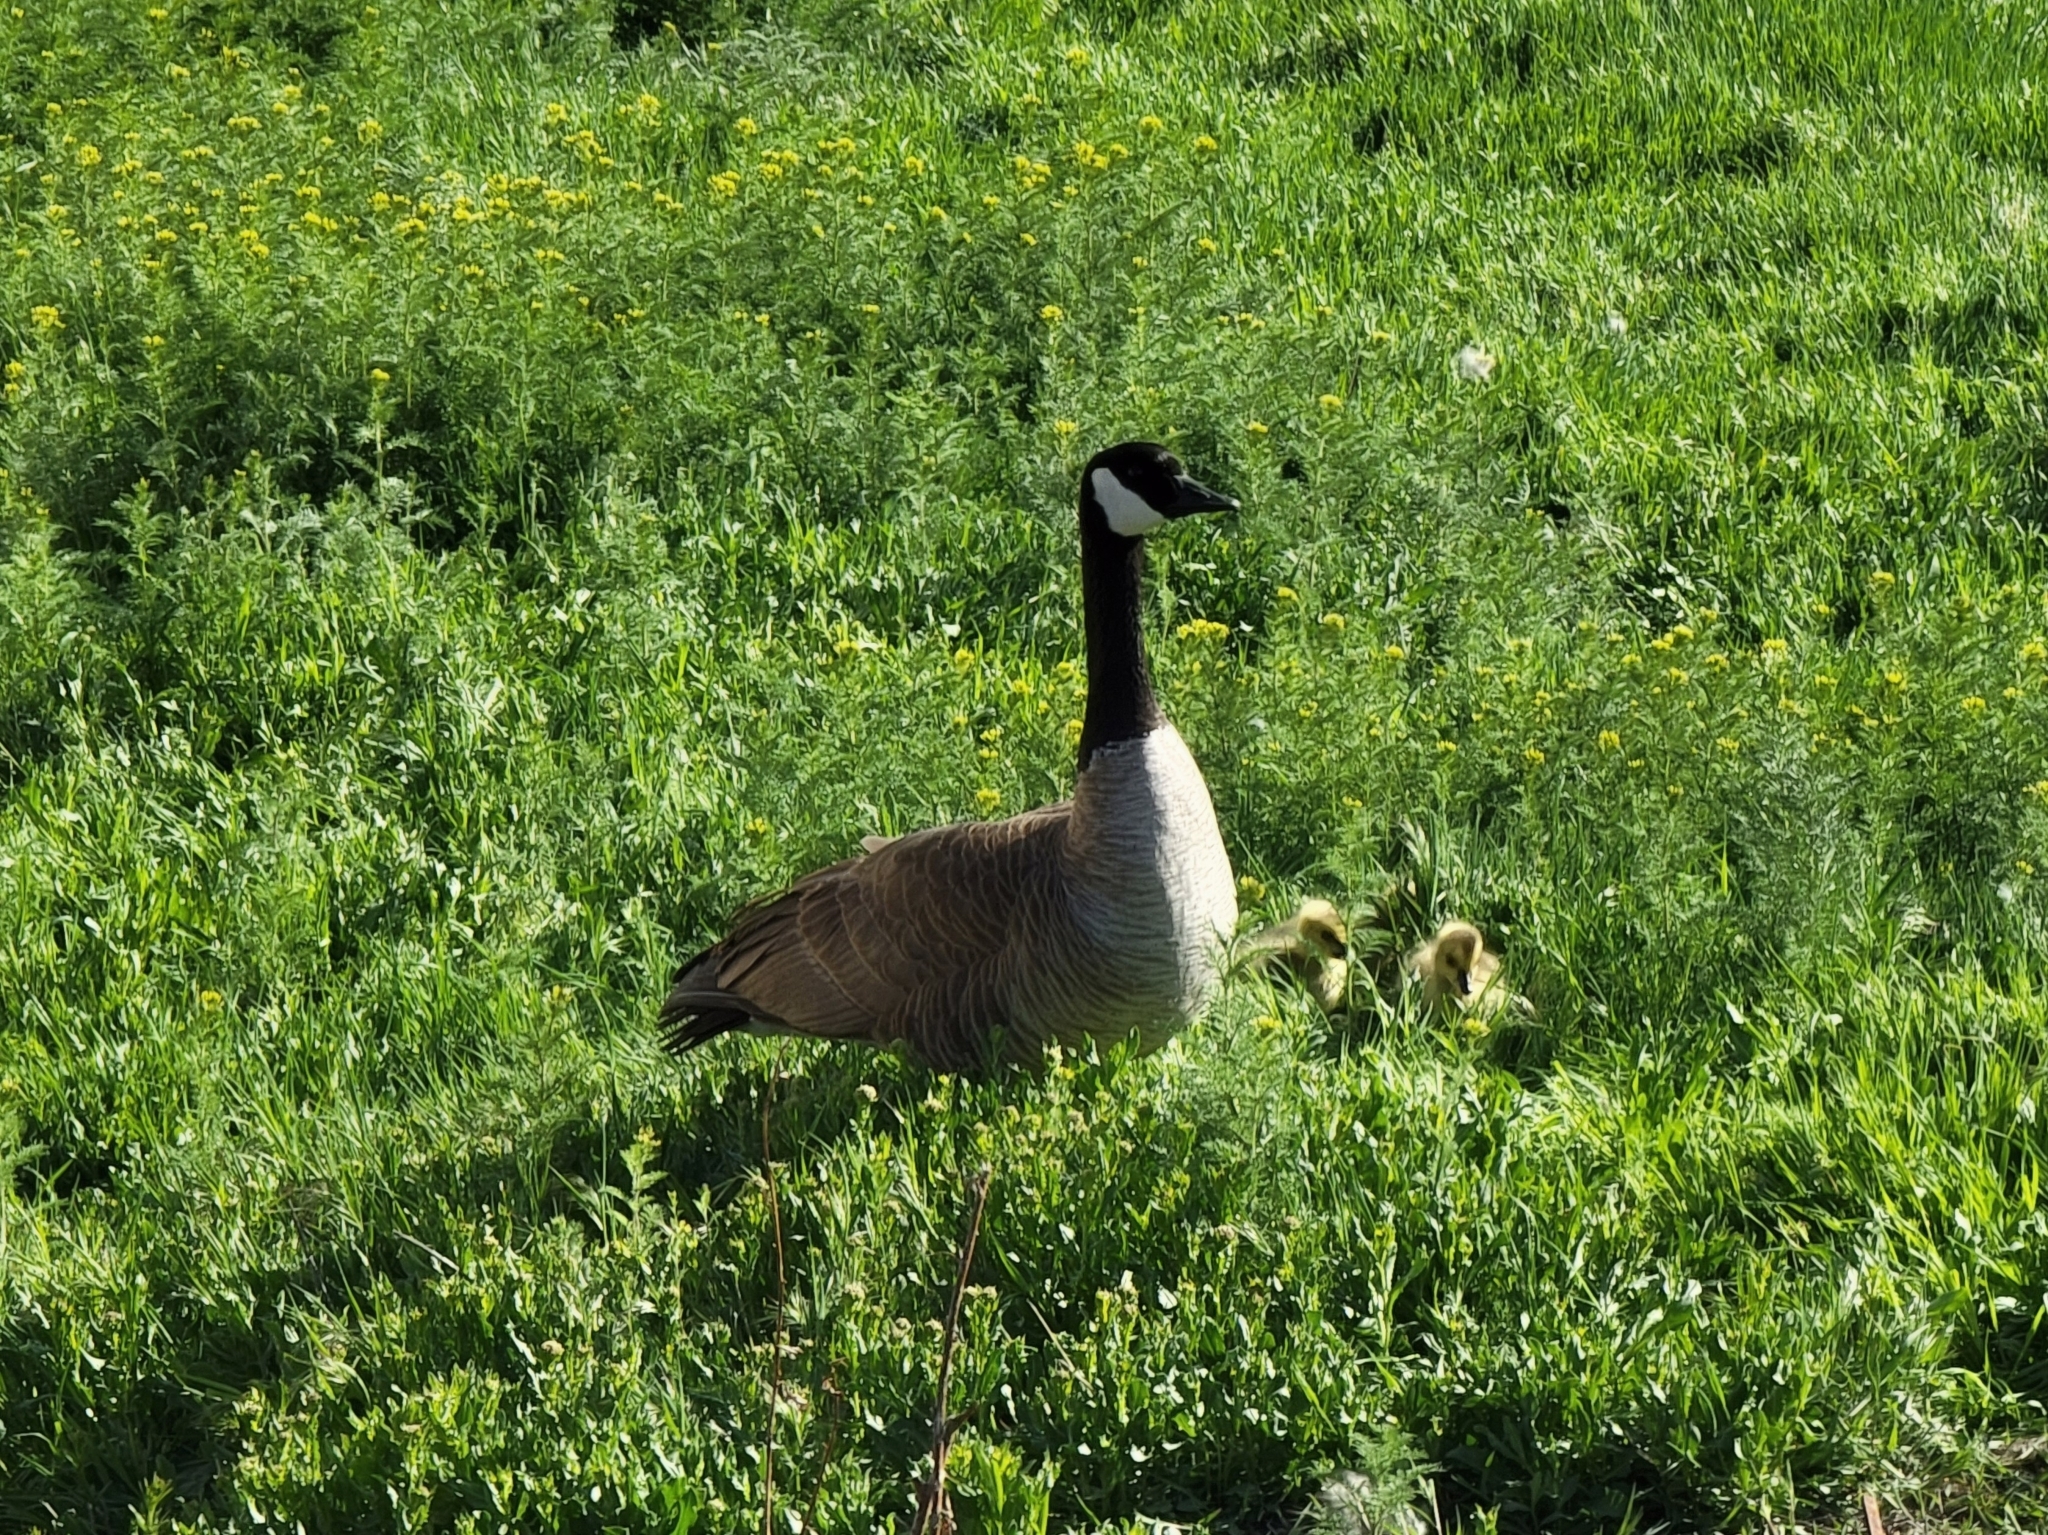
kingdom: Animalia
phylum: Chordata
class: Aves
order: Anseriformes
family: Anatidae
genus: Branta
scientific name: Branta canadensis
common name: Canada goose
